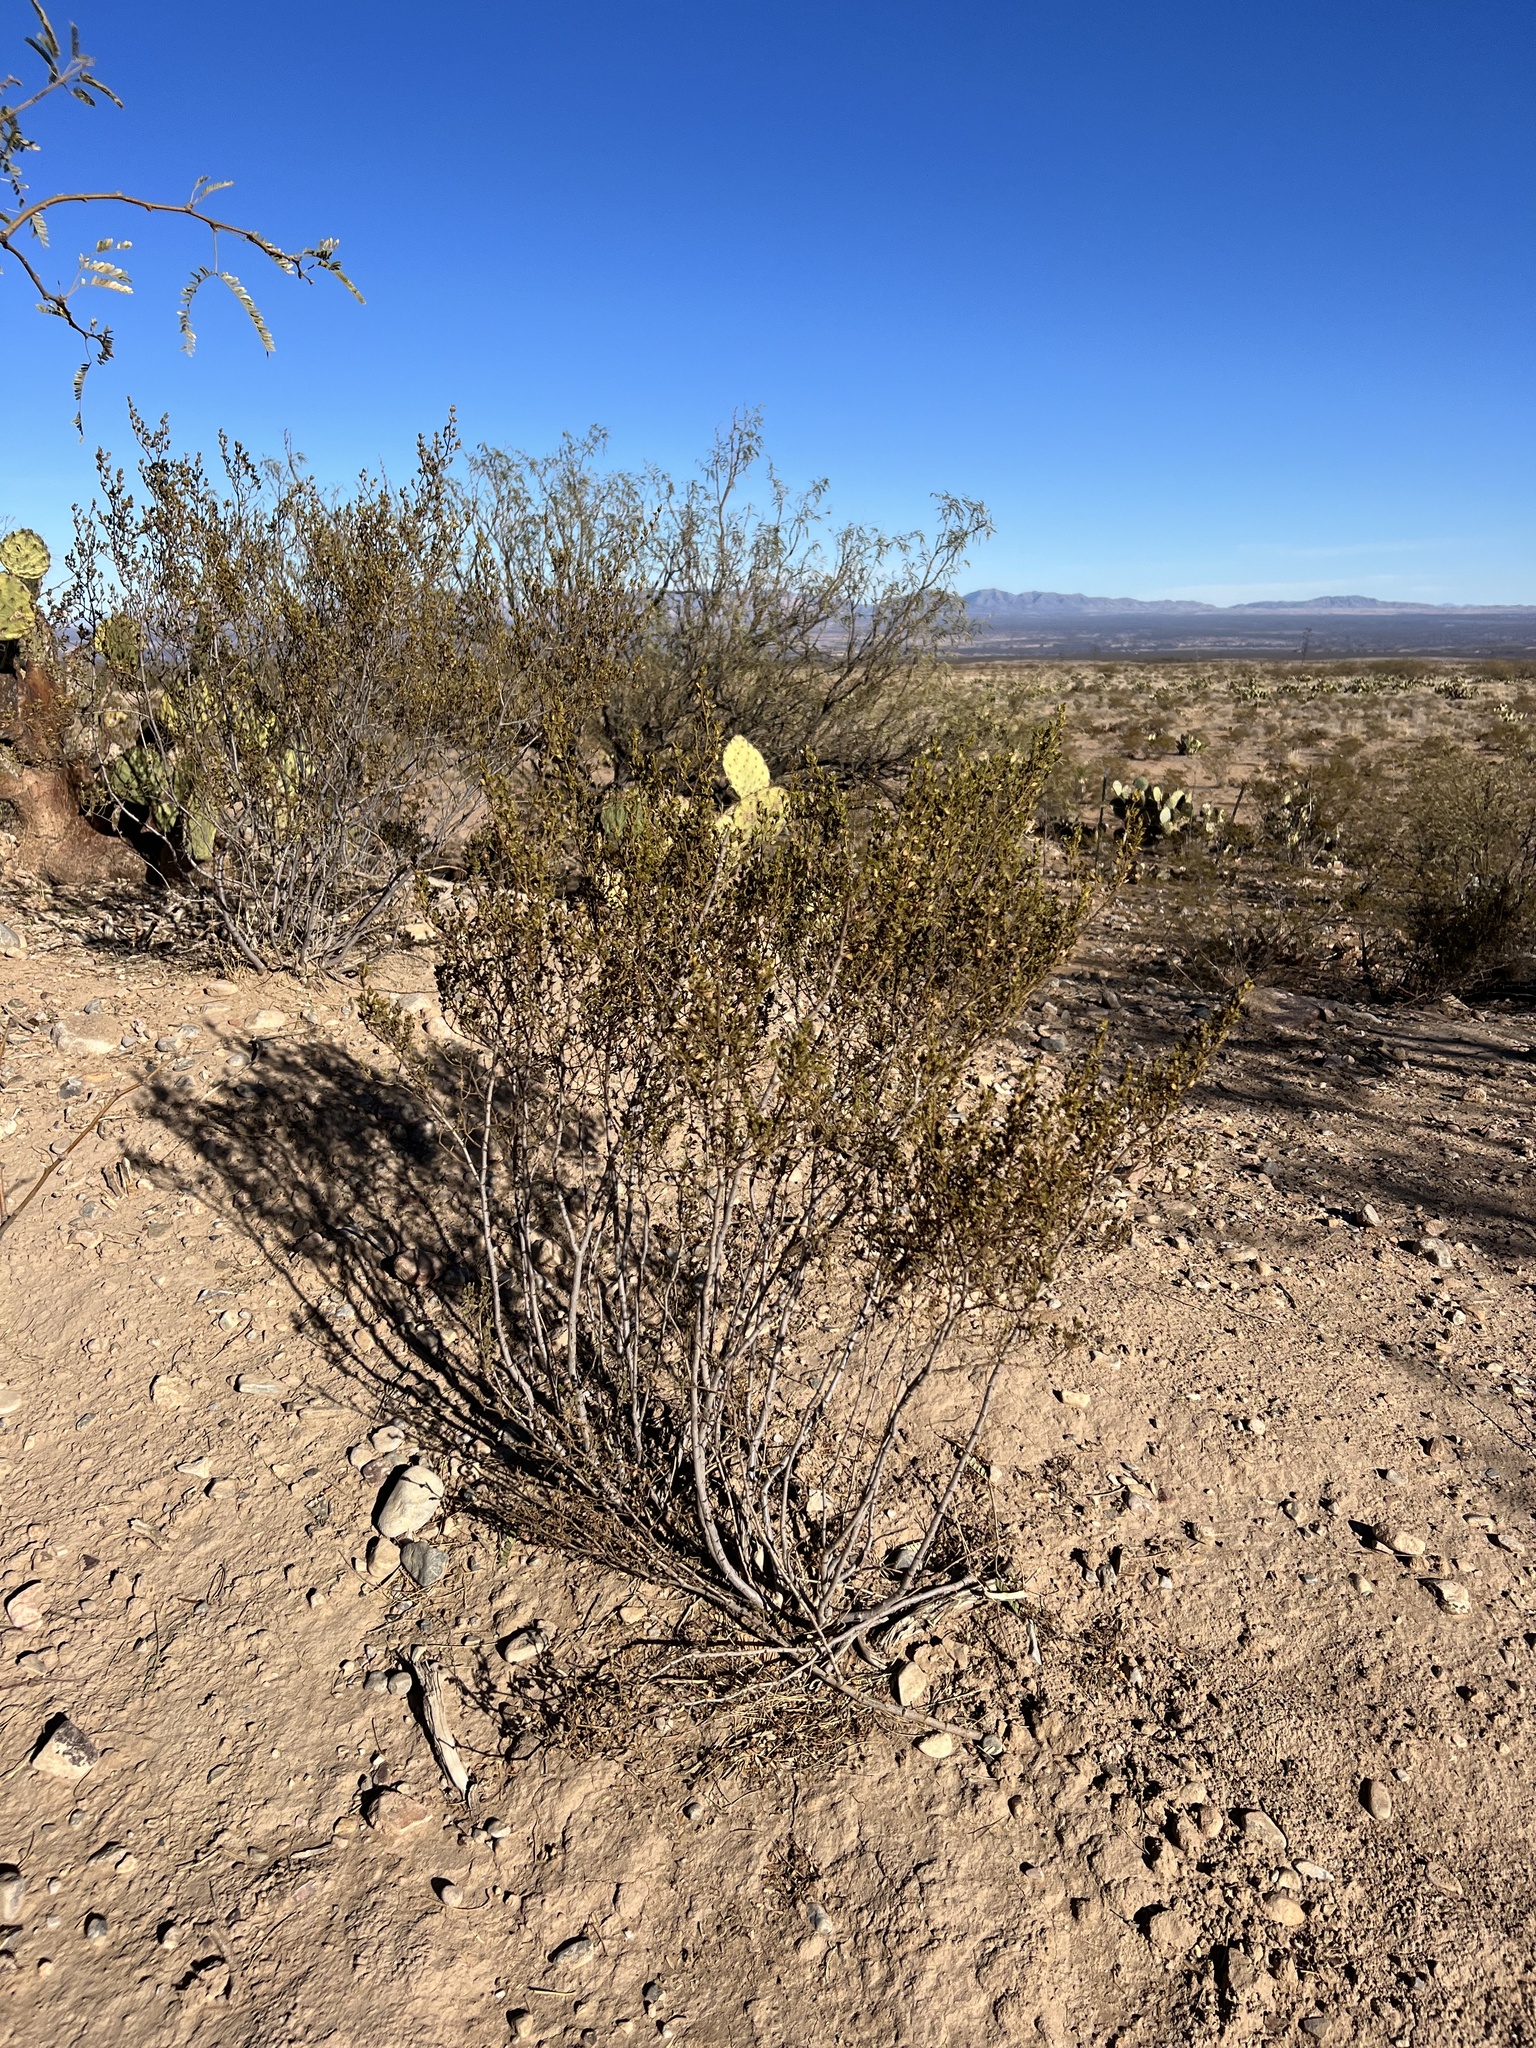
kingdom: Plantae
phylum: Tracheophyta
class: Magnoliopsida
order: Zygophyllales
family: Zygophyllaceae
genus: Larrea
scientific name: Larrea tridentata
